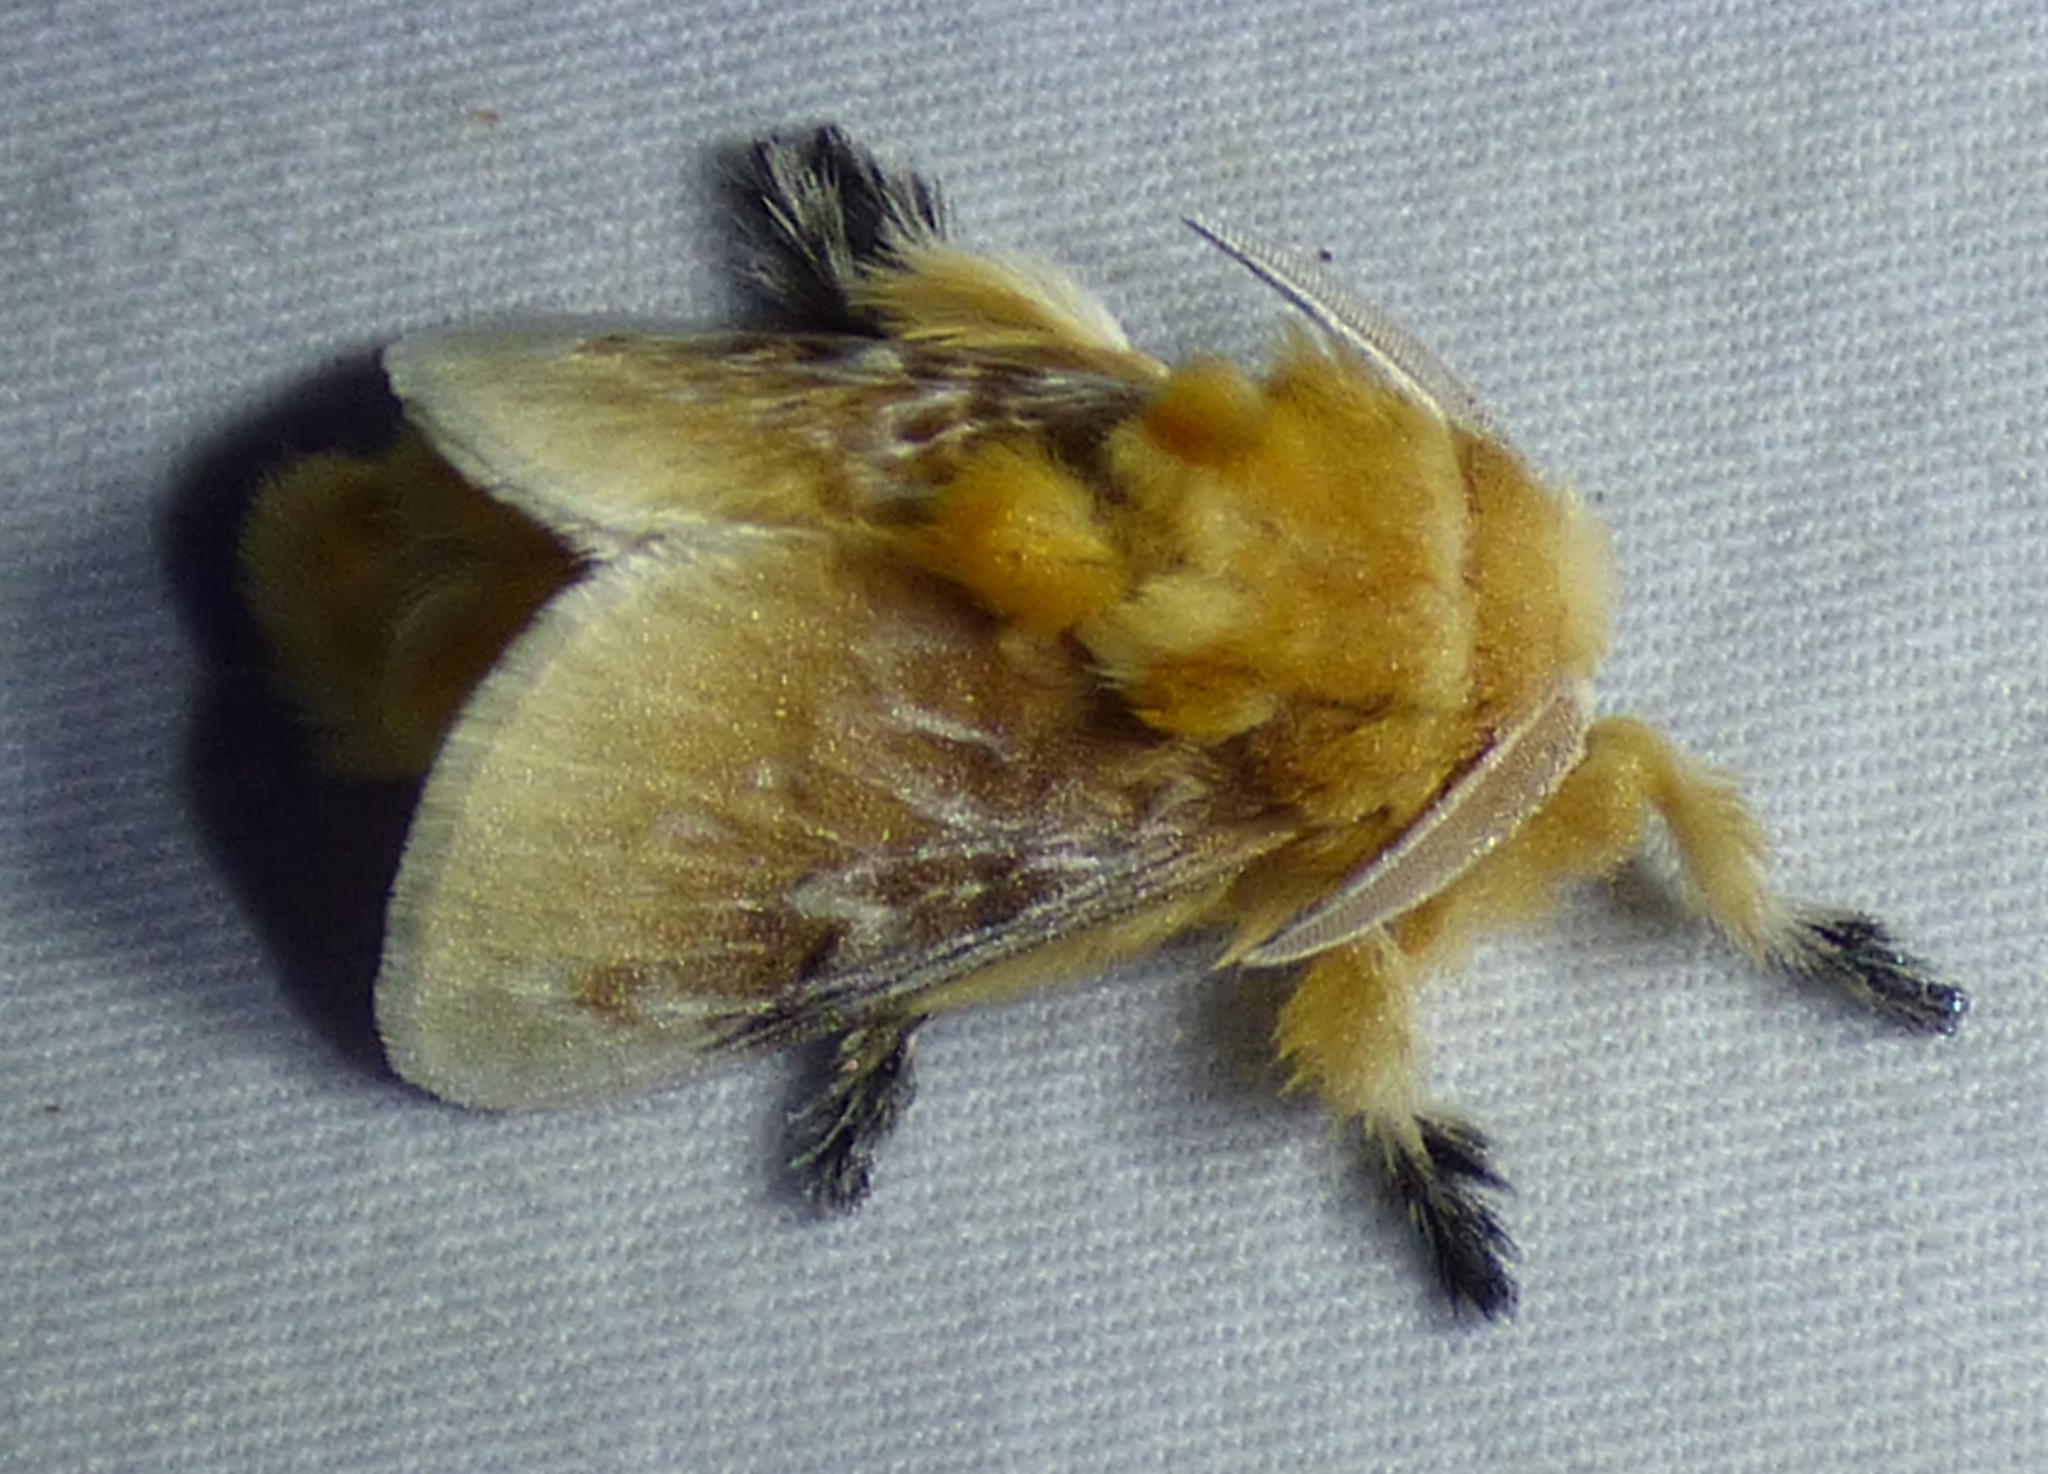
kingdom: Animalia
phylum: Arthropoda
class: Insecta
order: Lepidoptera
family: Megalopygidae
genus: Megalopyge
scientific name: Megalopyge opercularis
